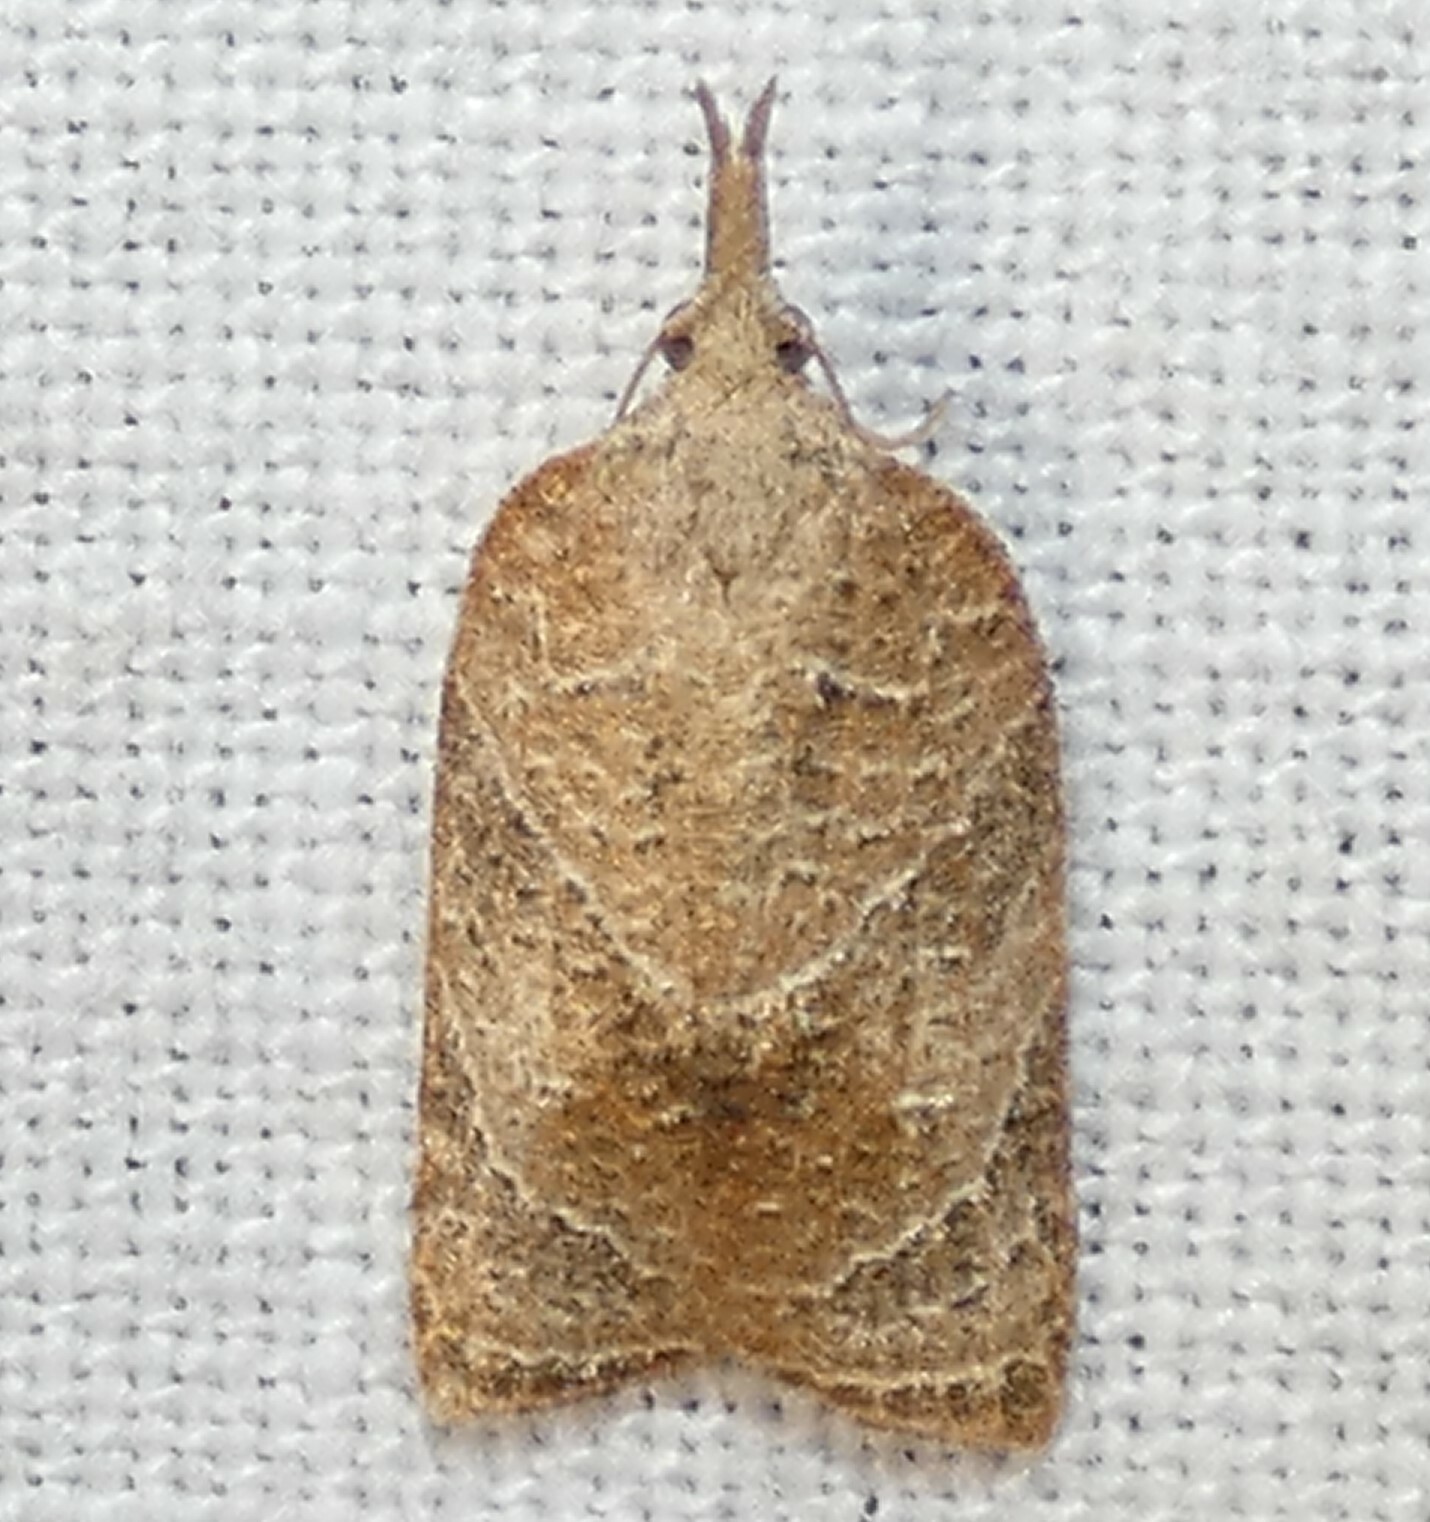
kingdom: Animalia
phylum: Arthropoda
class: Insecta
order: Lepidoptera
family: Tortricidae
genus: Platynota
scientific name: Platynota rostrana
